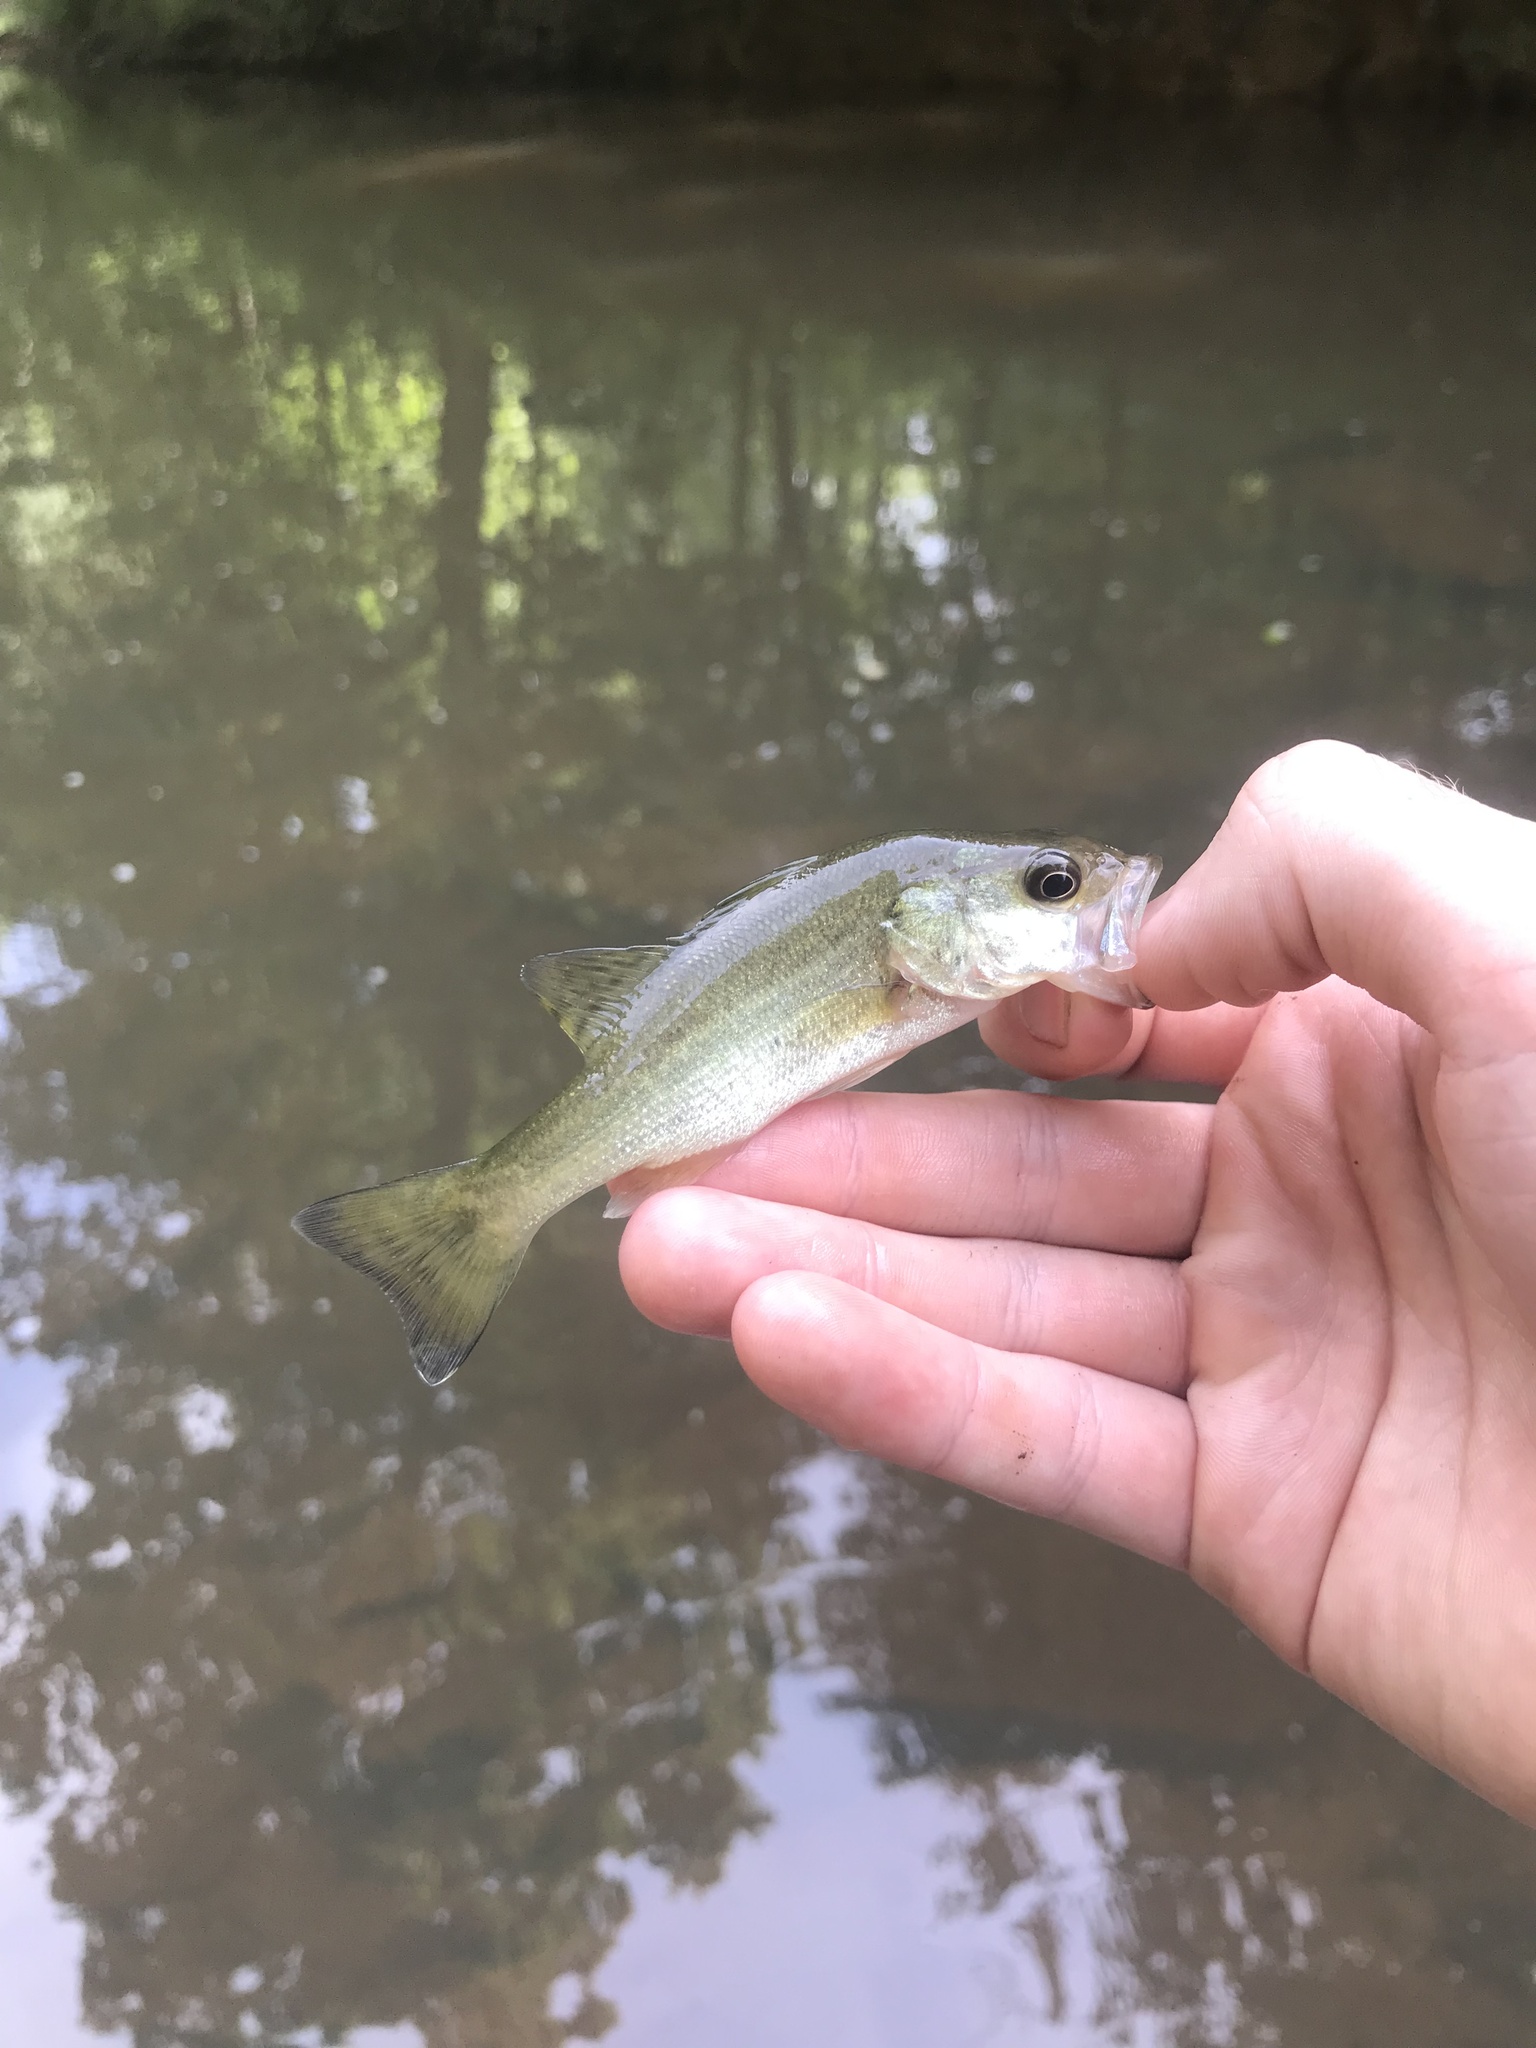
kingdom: Animalia
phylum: Chordata
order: Perciformes
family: Centrarchidae
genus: Micropterus
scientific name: Micropterus salmoides
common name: Largemouth bass
